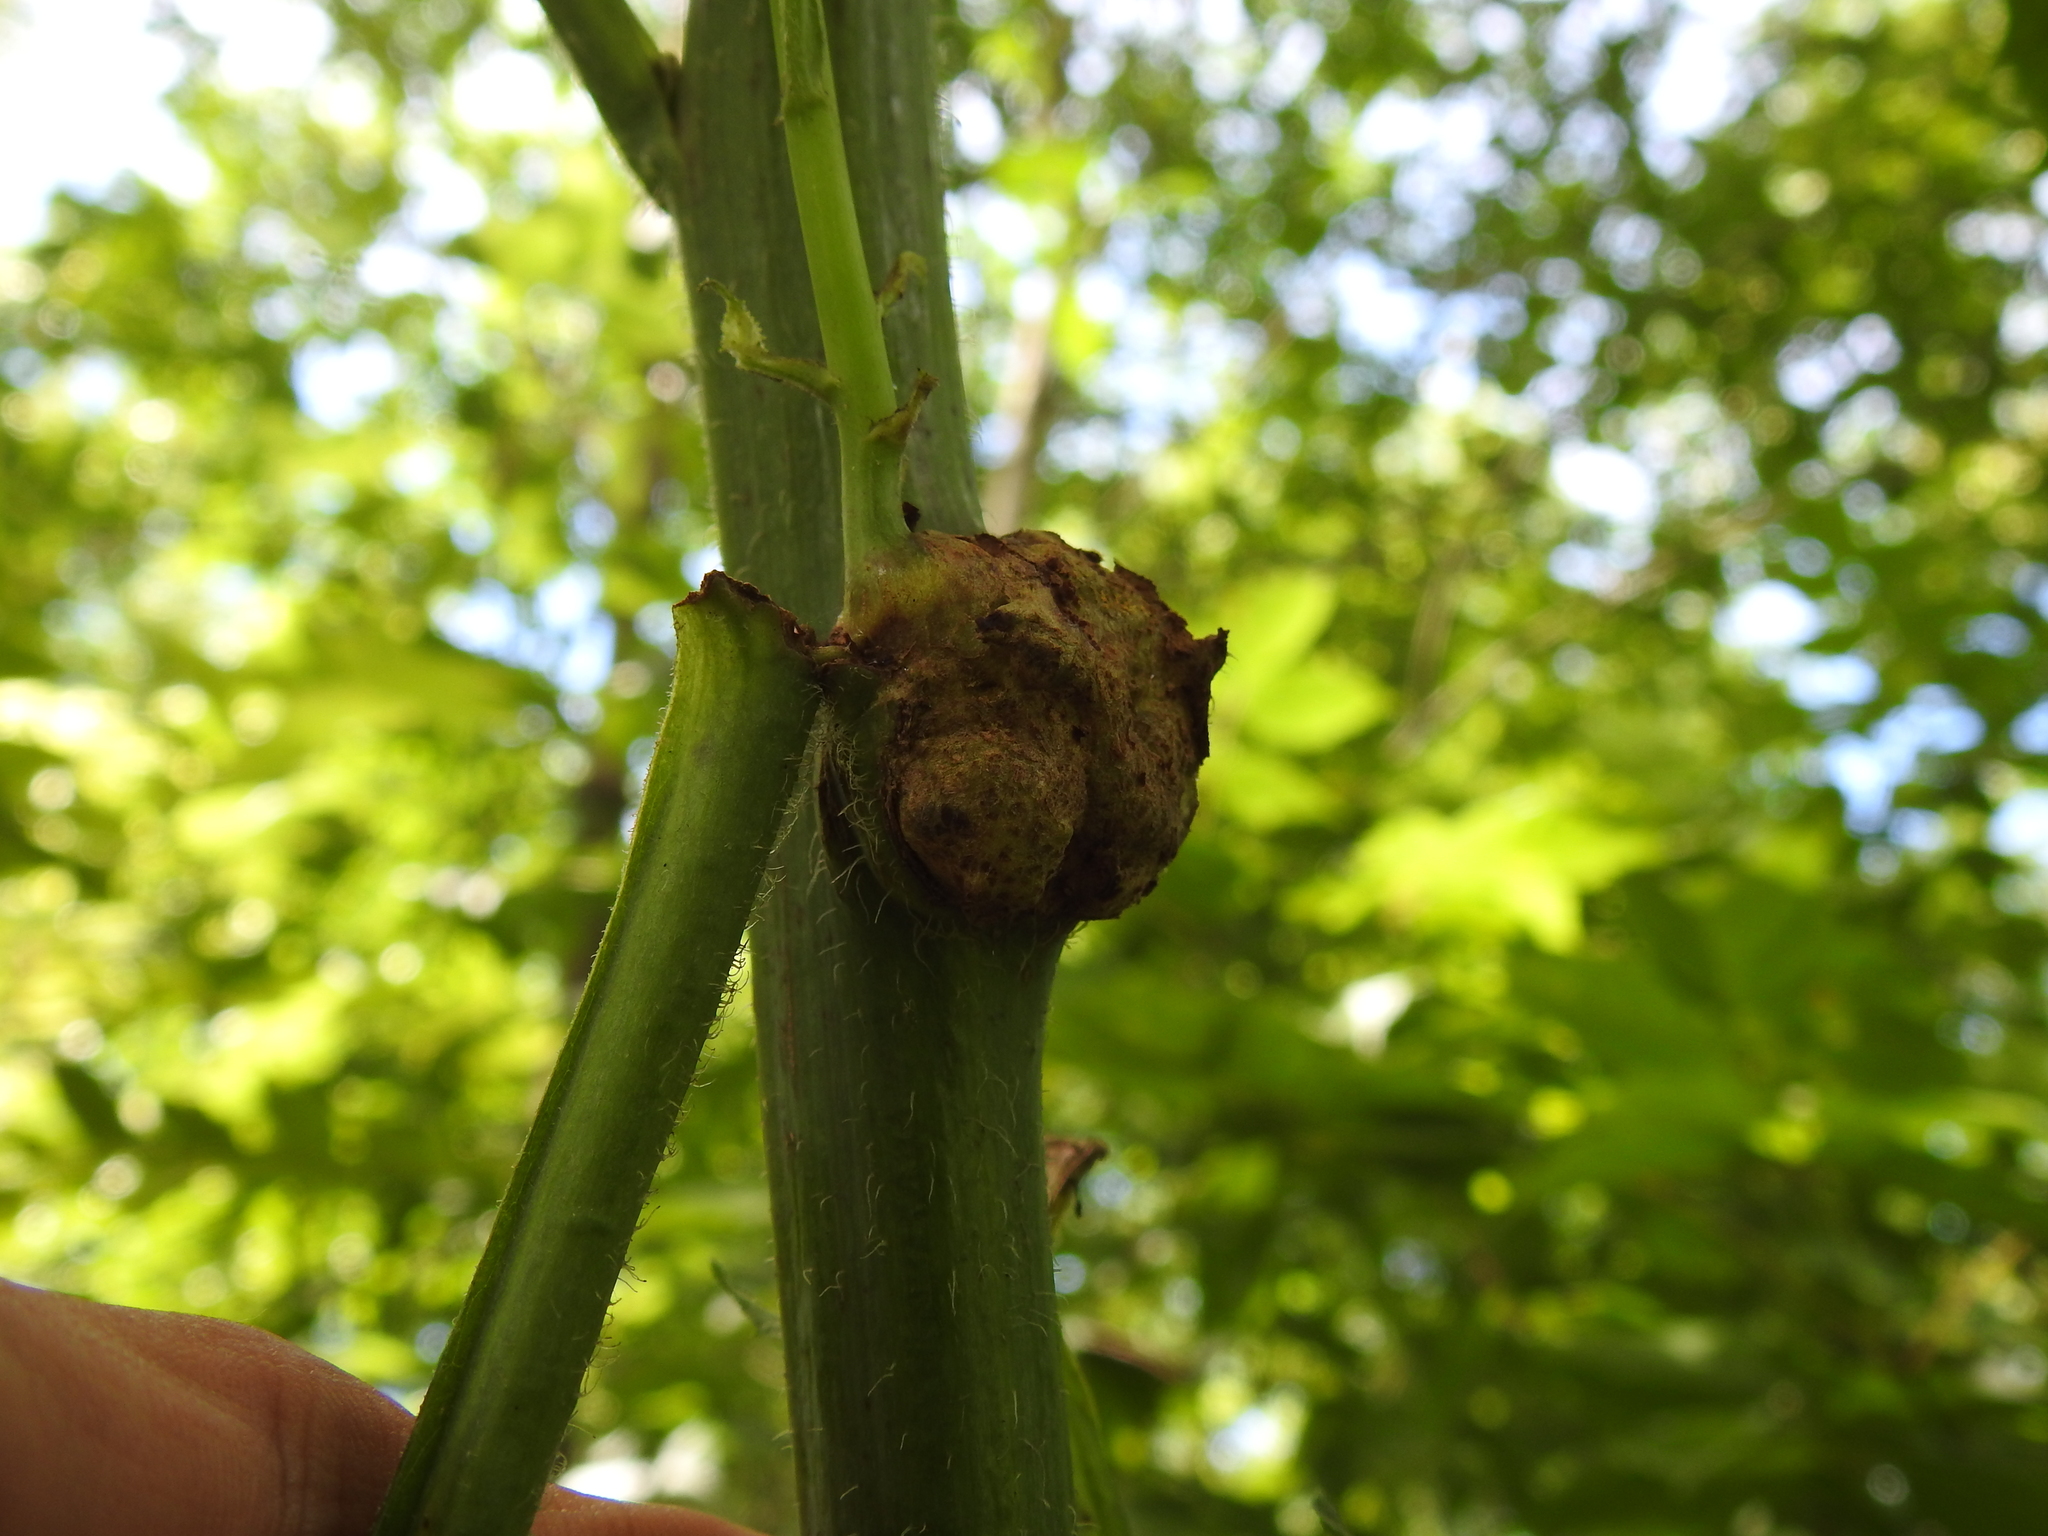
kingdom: Animalia
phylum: Arthropoda
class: Insecta
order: Hymenoptera
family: Cynipidae
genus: Aulacidea
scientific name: Aulacidea
